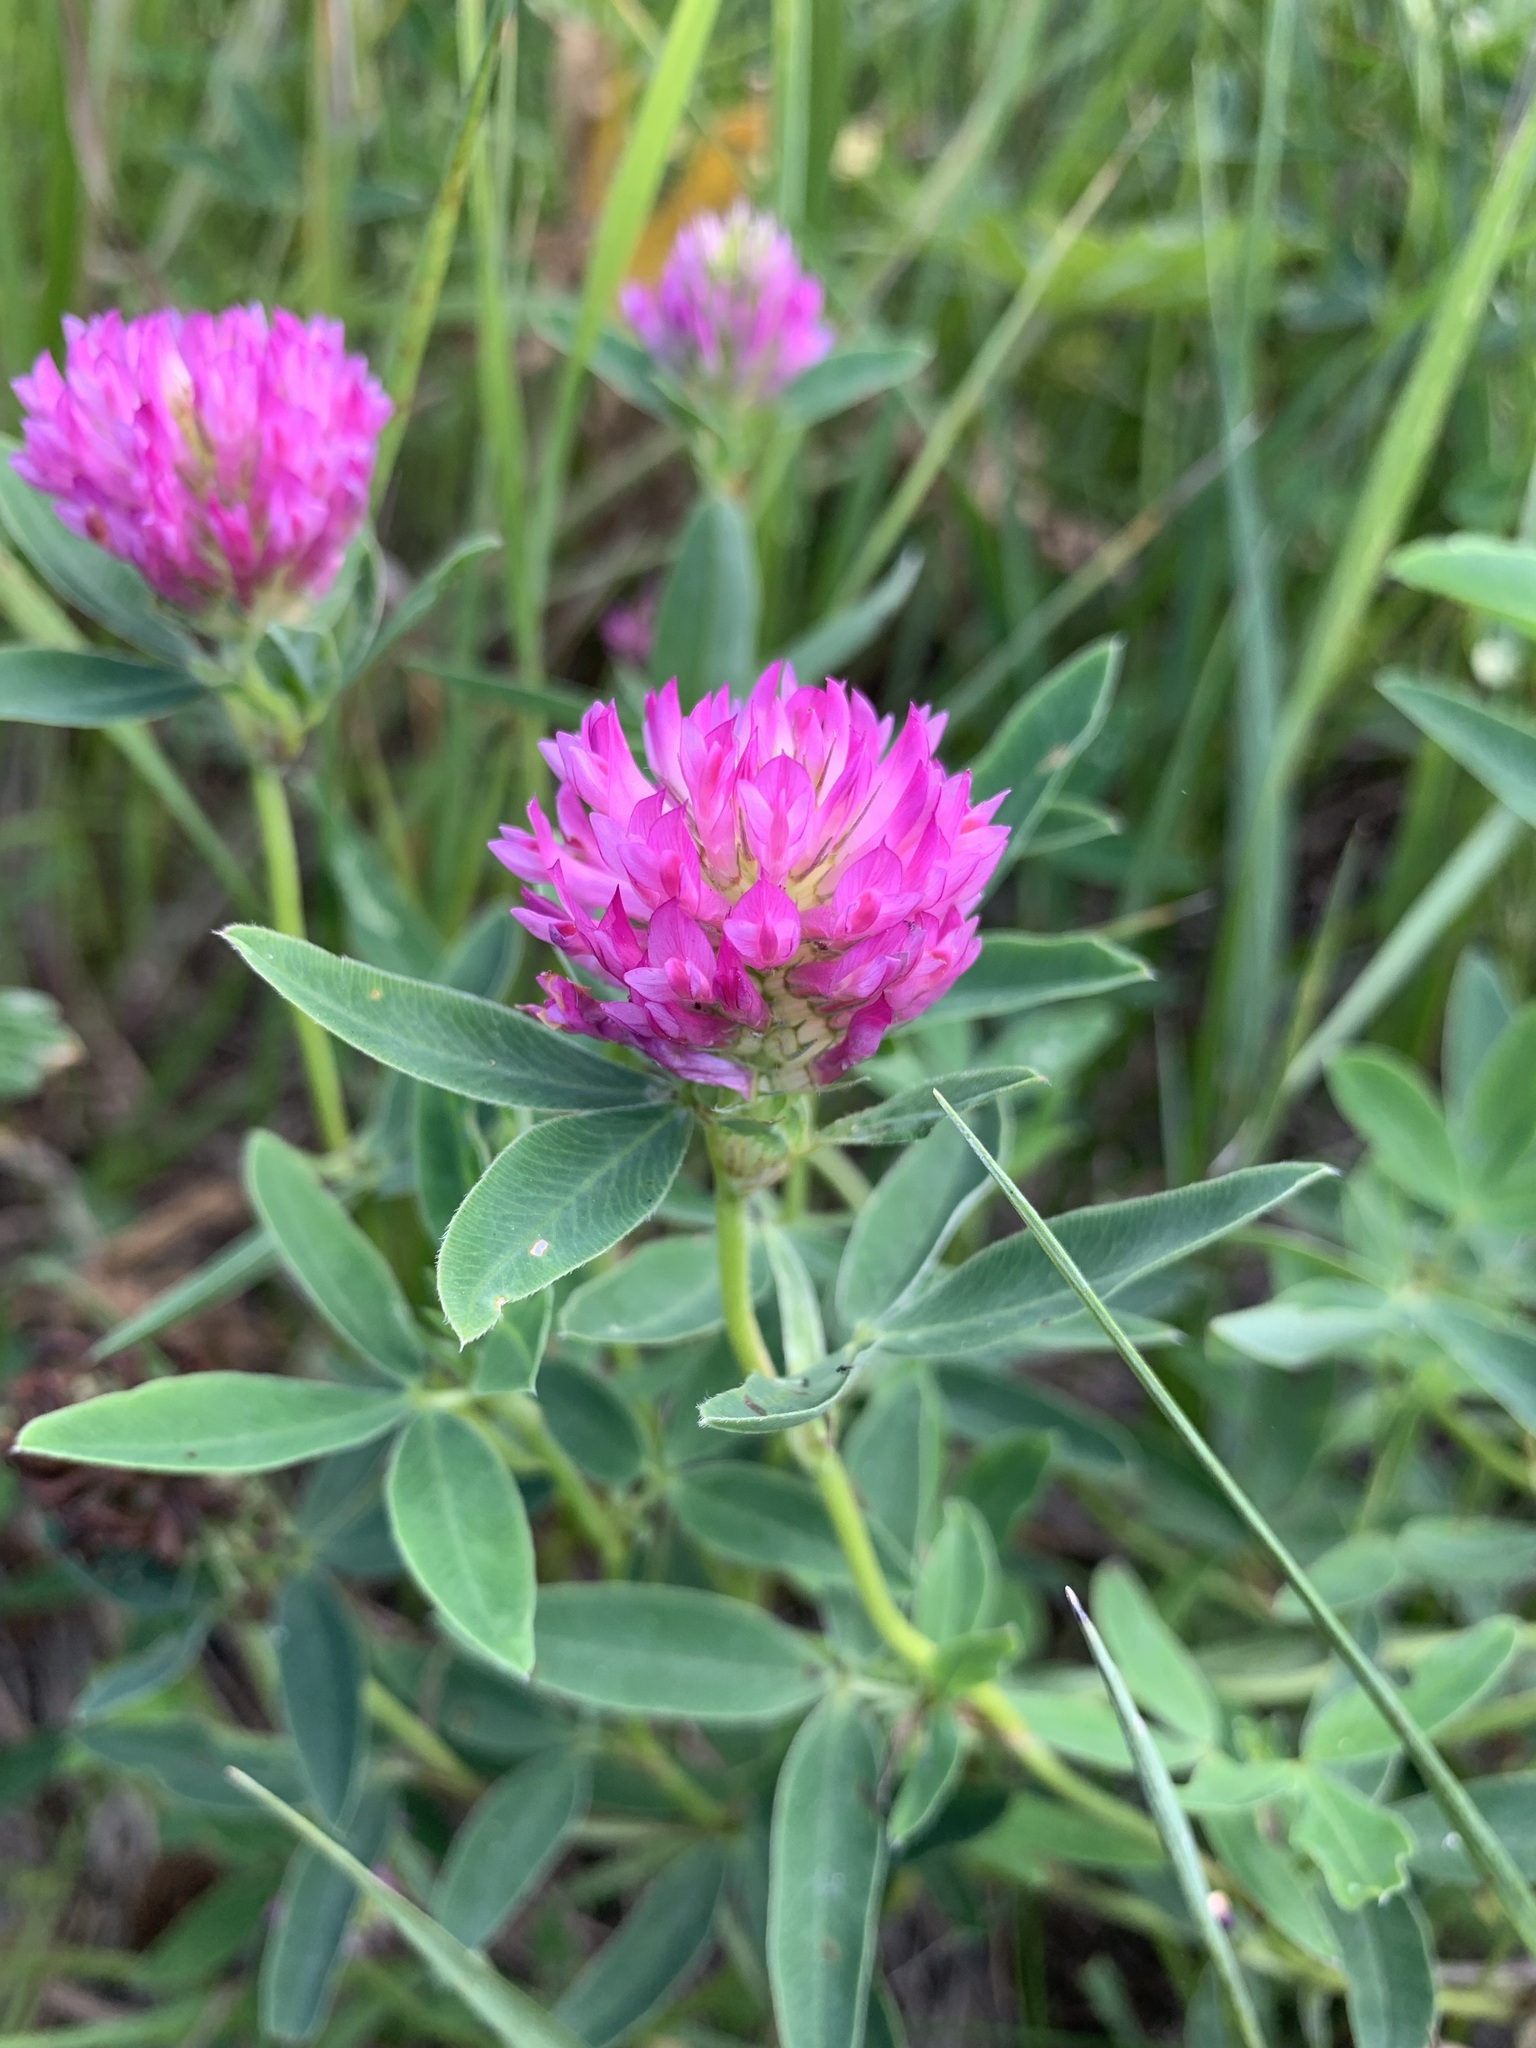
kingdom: Plantae
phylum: Tracheophyta
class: Magnoliopsida
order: Fabales
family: Fabaceae
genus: Trifolium
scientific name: Trifolium medium
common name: Zigzag clover
